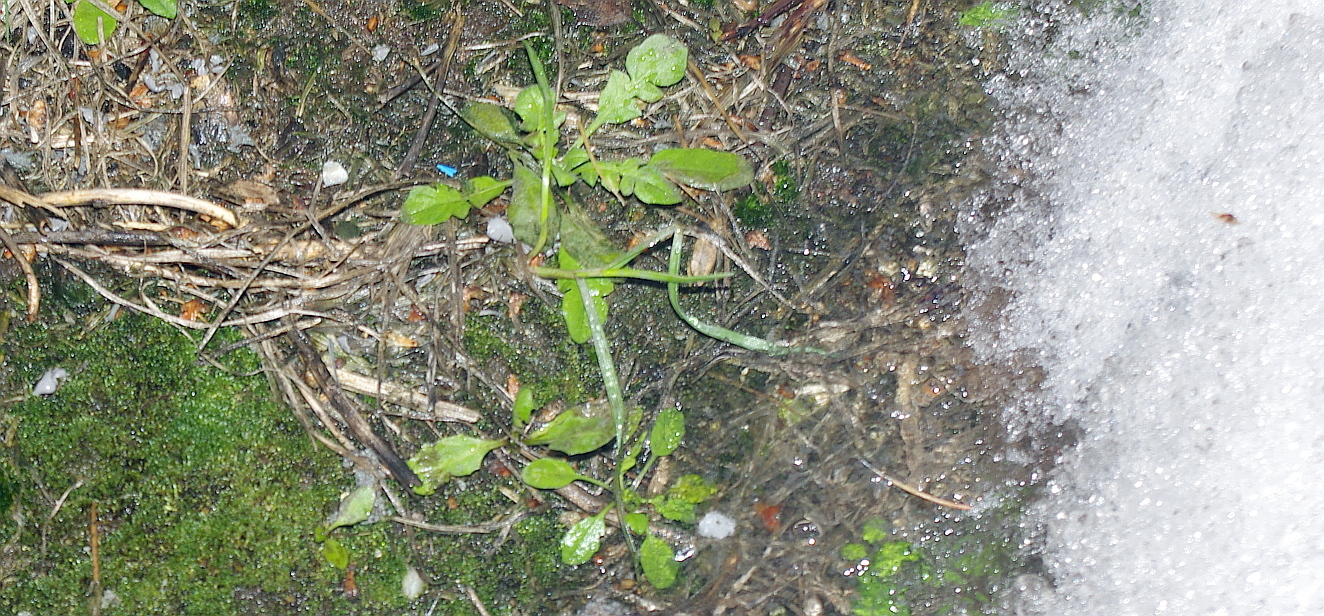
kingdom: Plantae
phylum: Tracheophyta
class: Magnoliopsida
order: Brassicales
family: Brassicaceae
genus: Capsella
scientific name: Capsella bursa-pastoris
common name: Shepherd's purse
